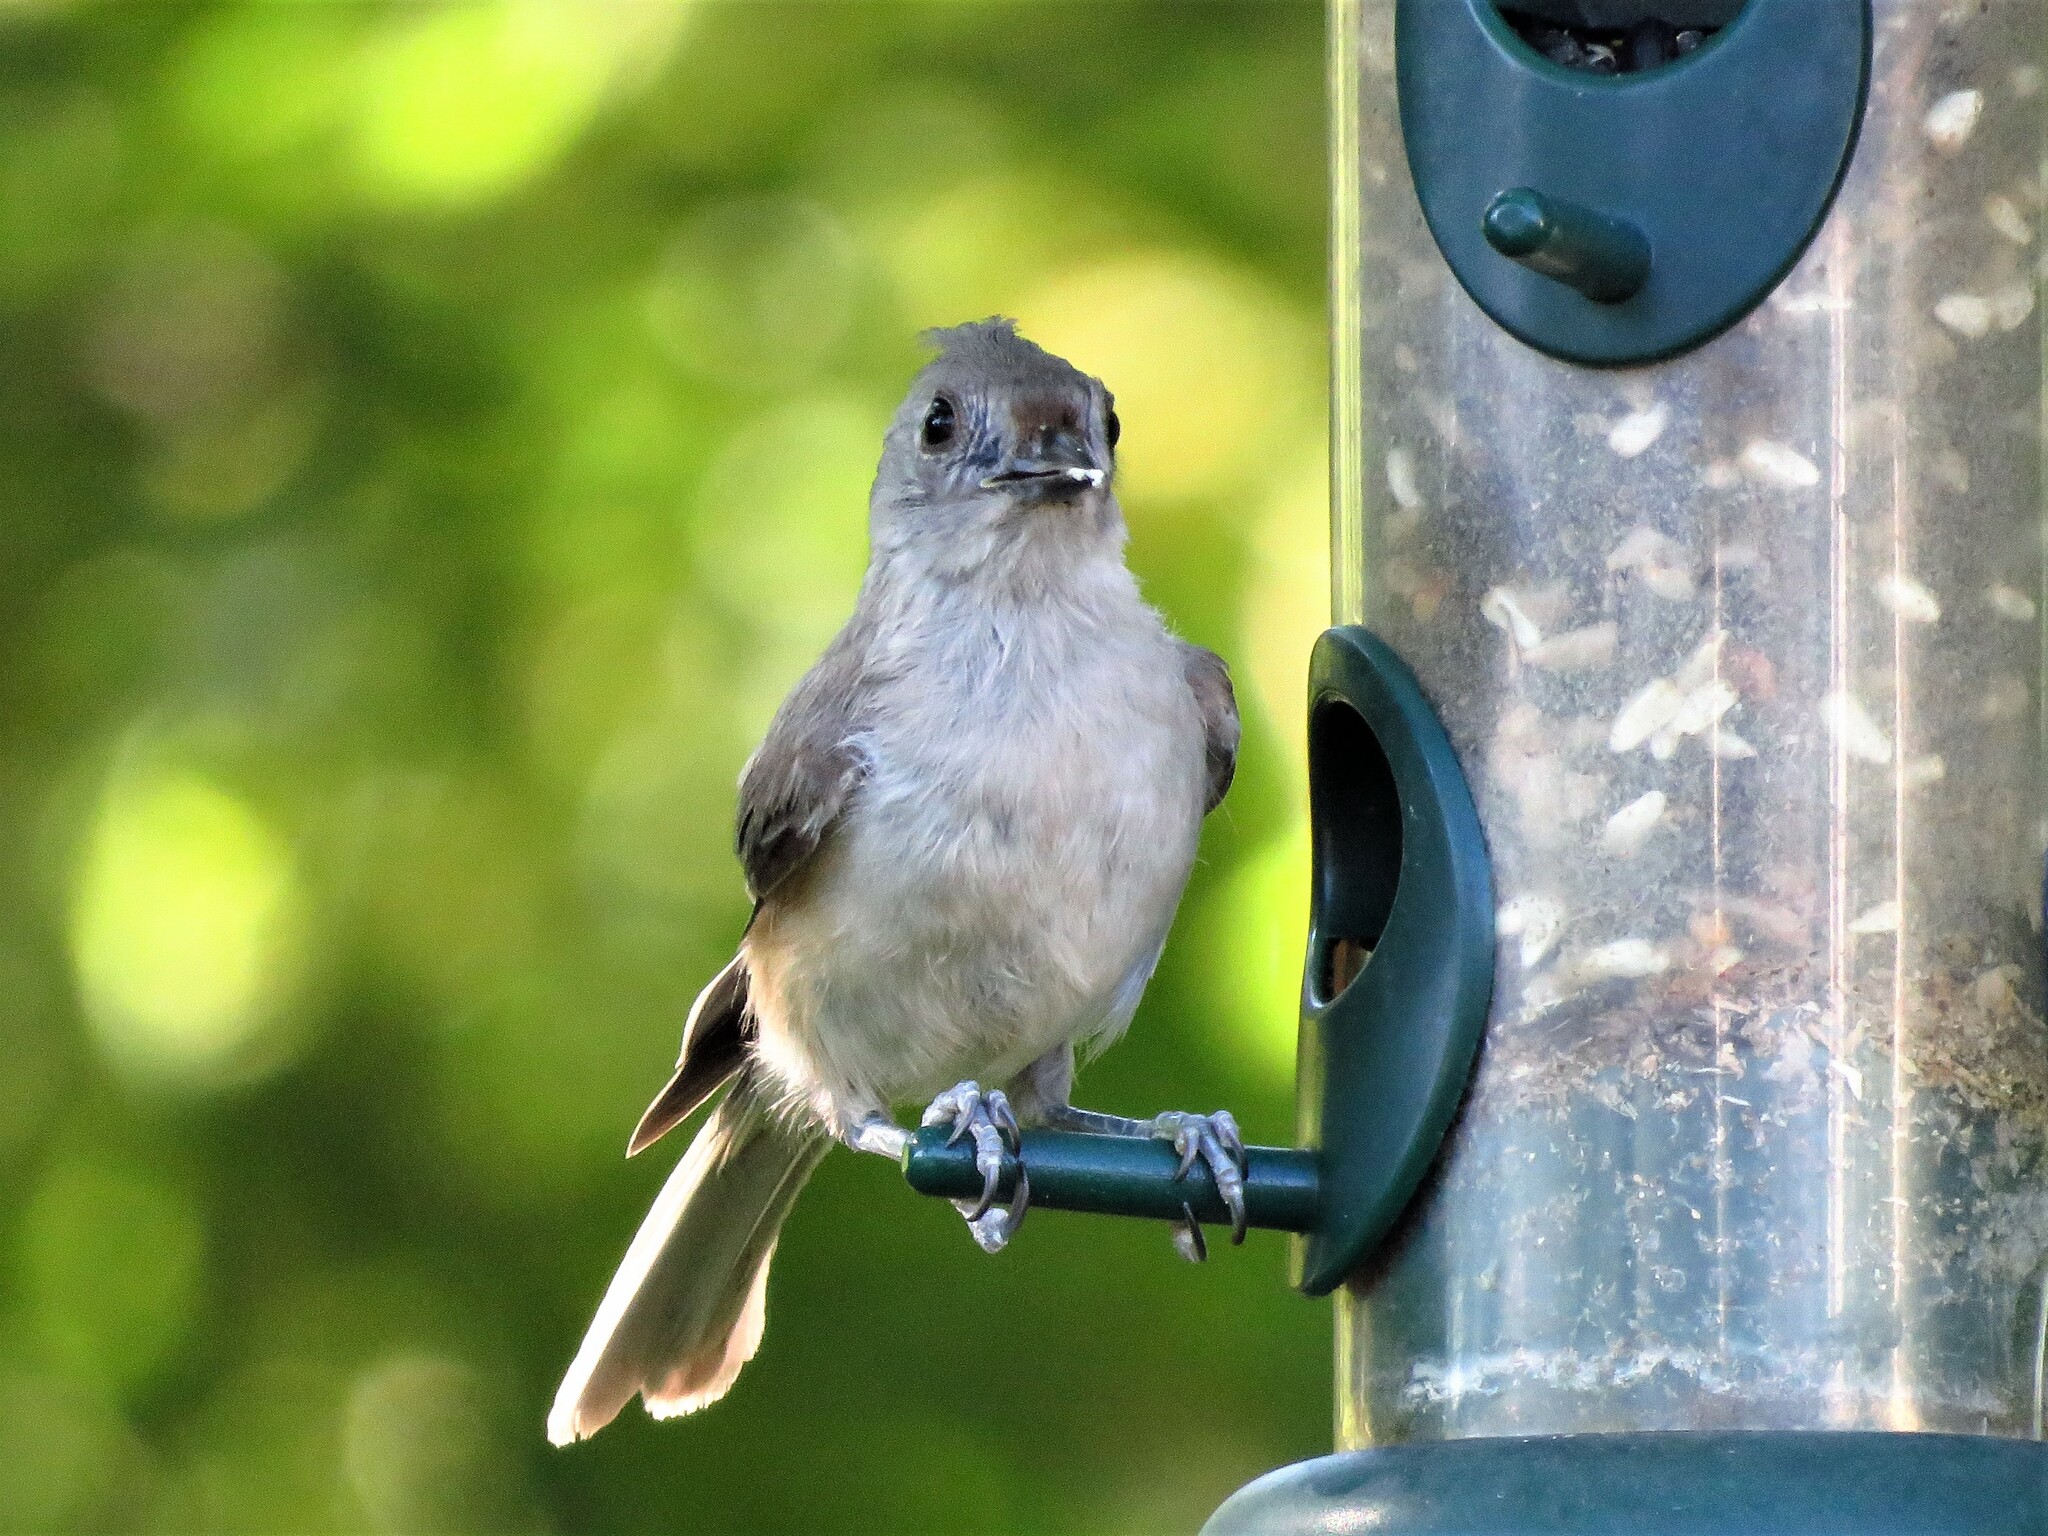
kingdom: Animalia
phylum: Chordata
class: Aves
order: Passeriformes
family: Paridae
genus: Baeolophus
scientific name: Baeolophus bicolor
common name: Tufted titmouse
